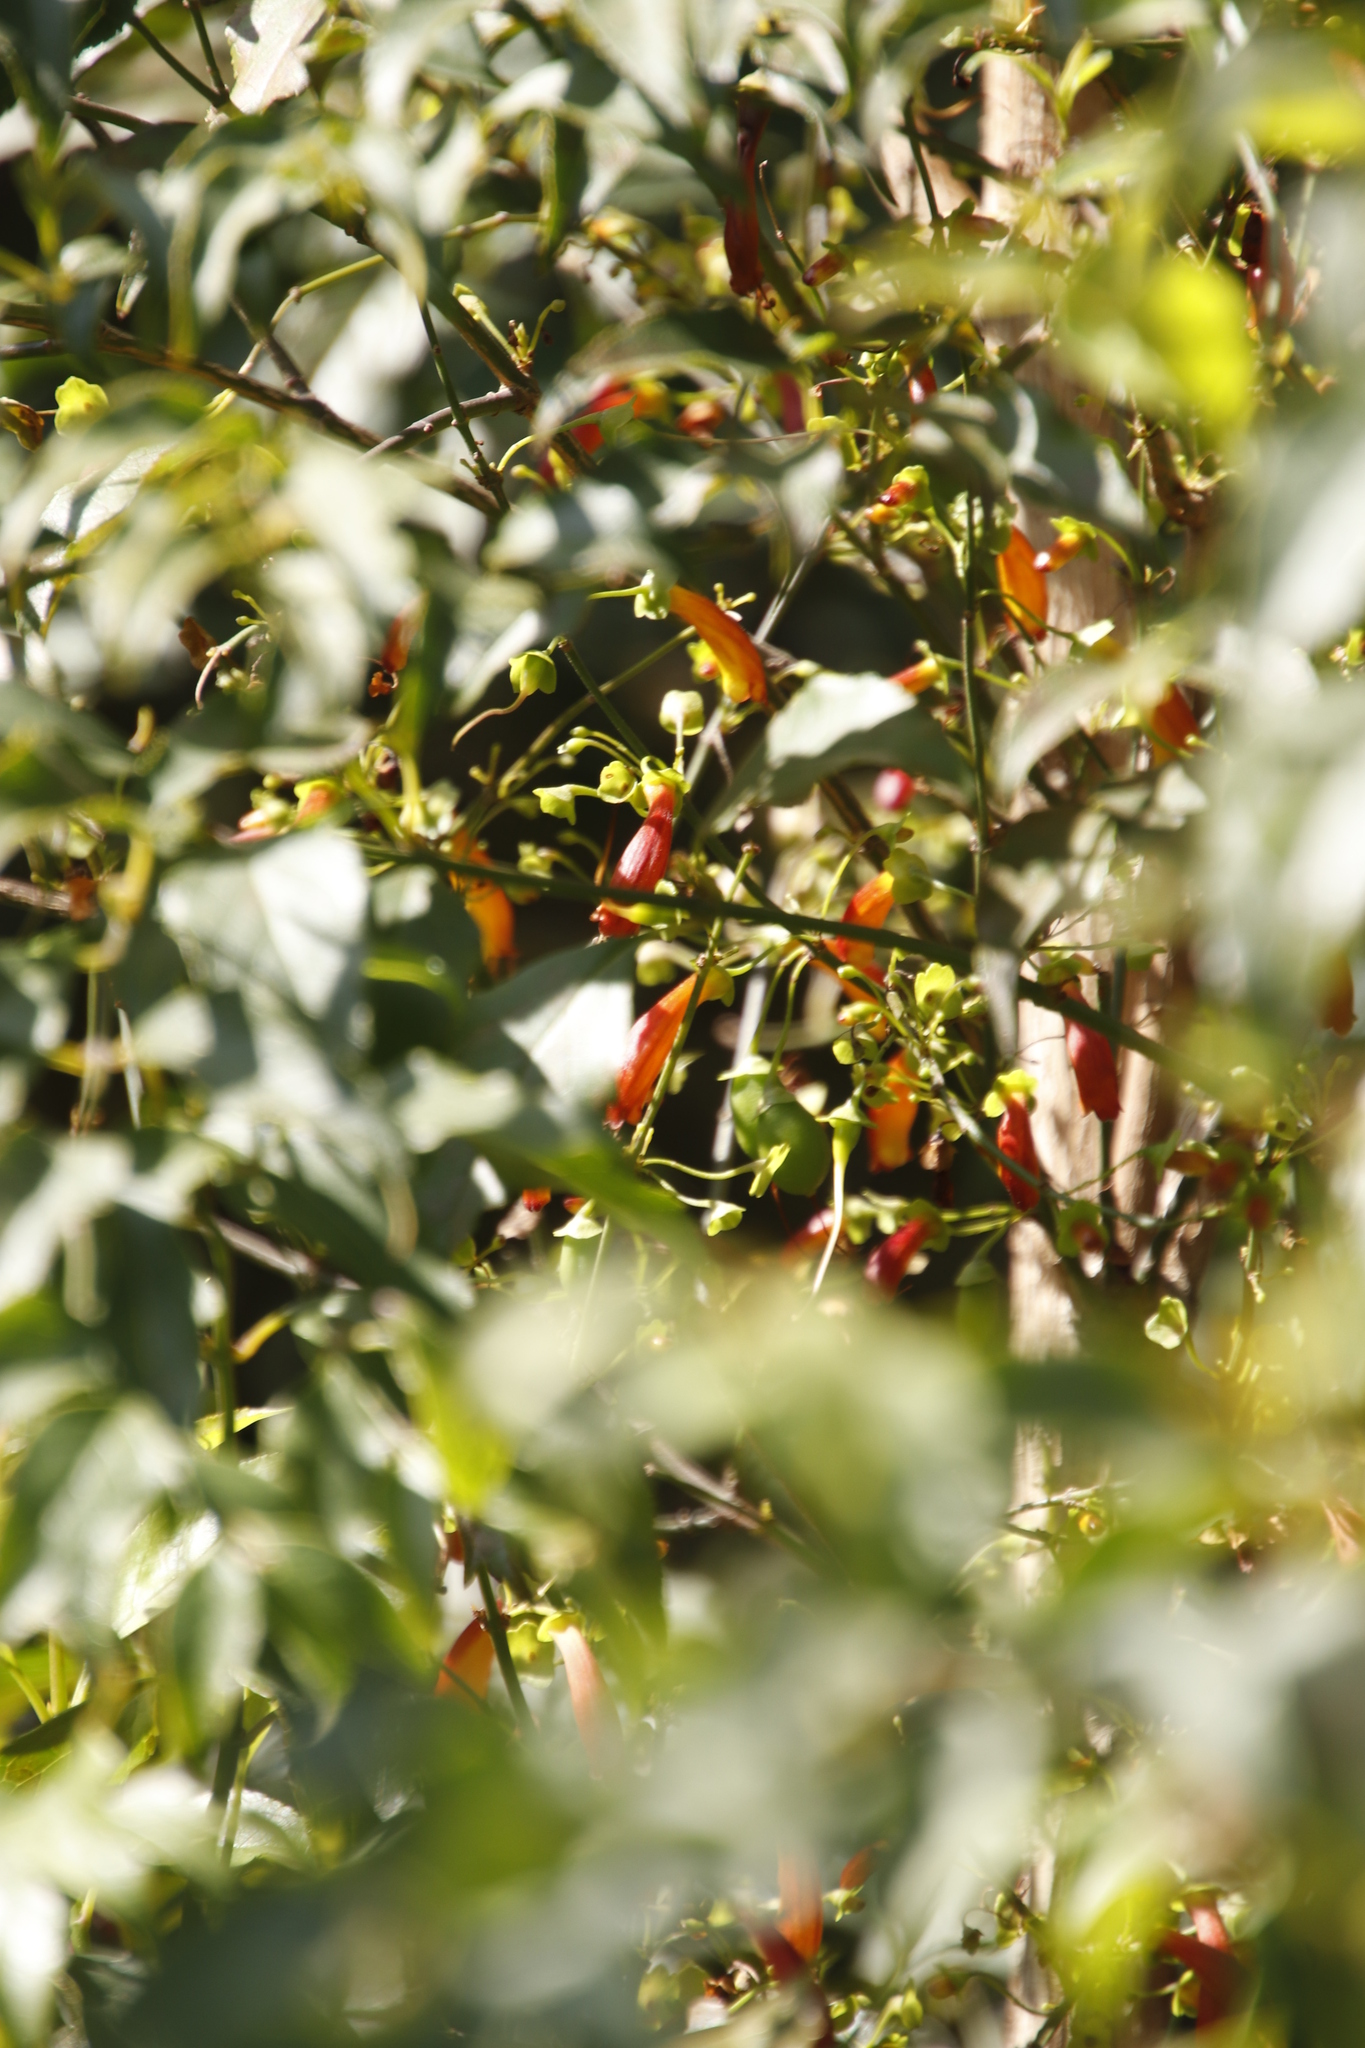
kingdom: Plantae
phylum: Tracheophyta
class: Magnoliopsida
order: Lamiales
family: Stilbaceae
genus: Halleria
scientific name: Halleria lucida
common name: Tree fuschia
